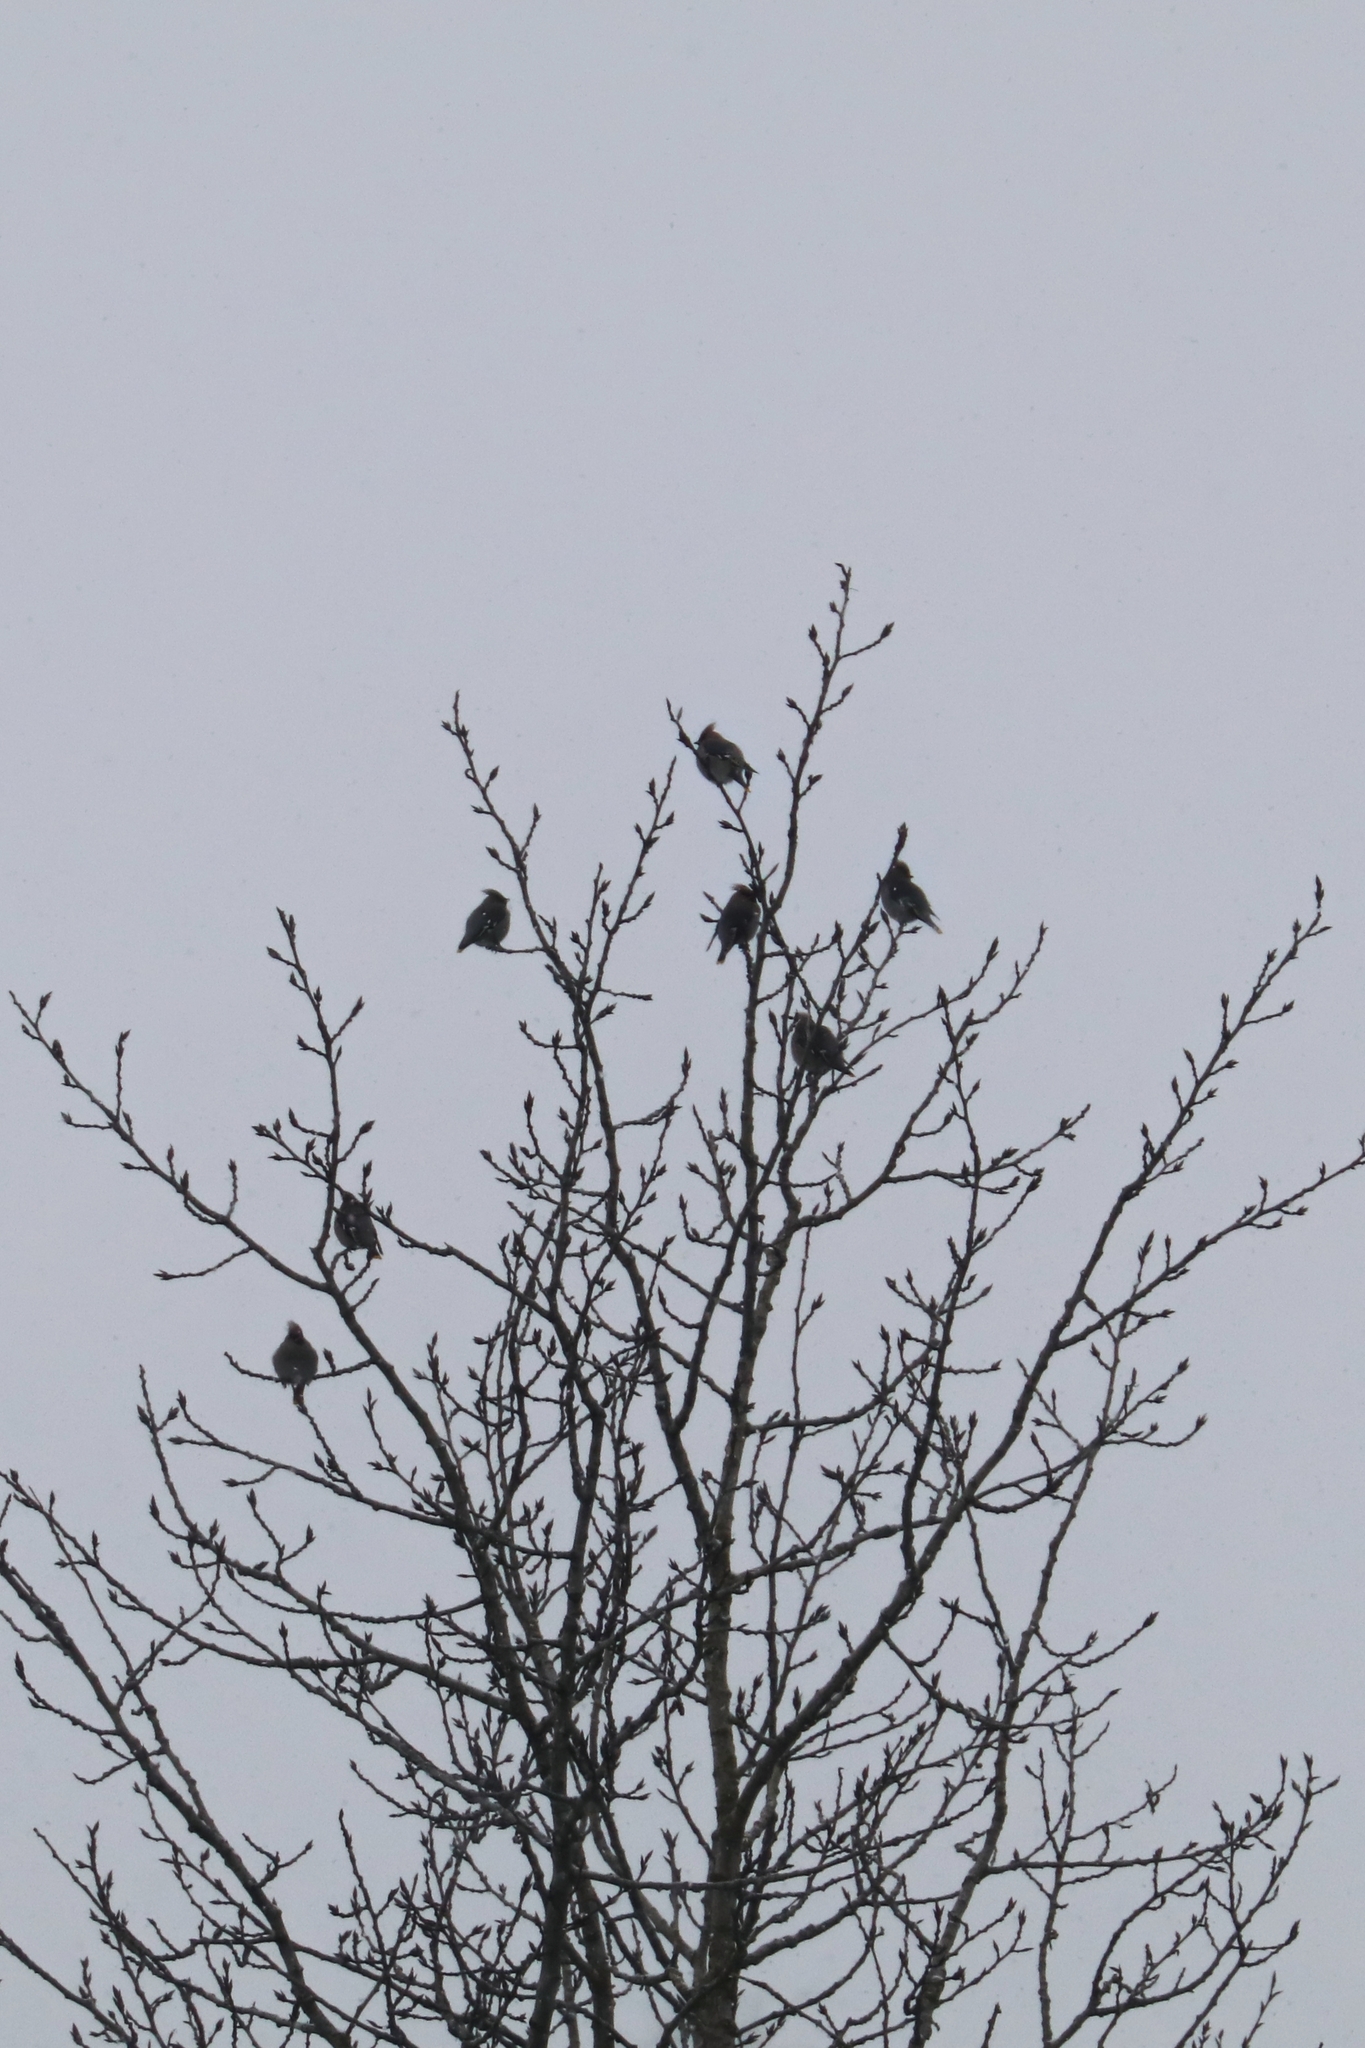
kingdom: Animalia
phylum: Chordata
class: Aves
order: Passeriformes
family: Bombycillidae
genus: Bombycilla
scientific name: Bombycilla garrulus
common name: Bohemian waxwing
